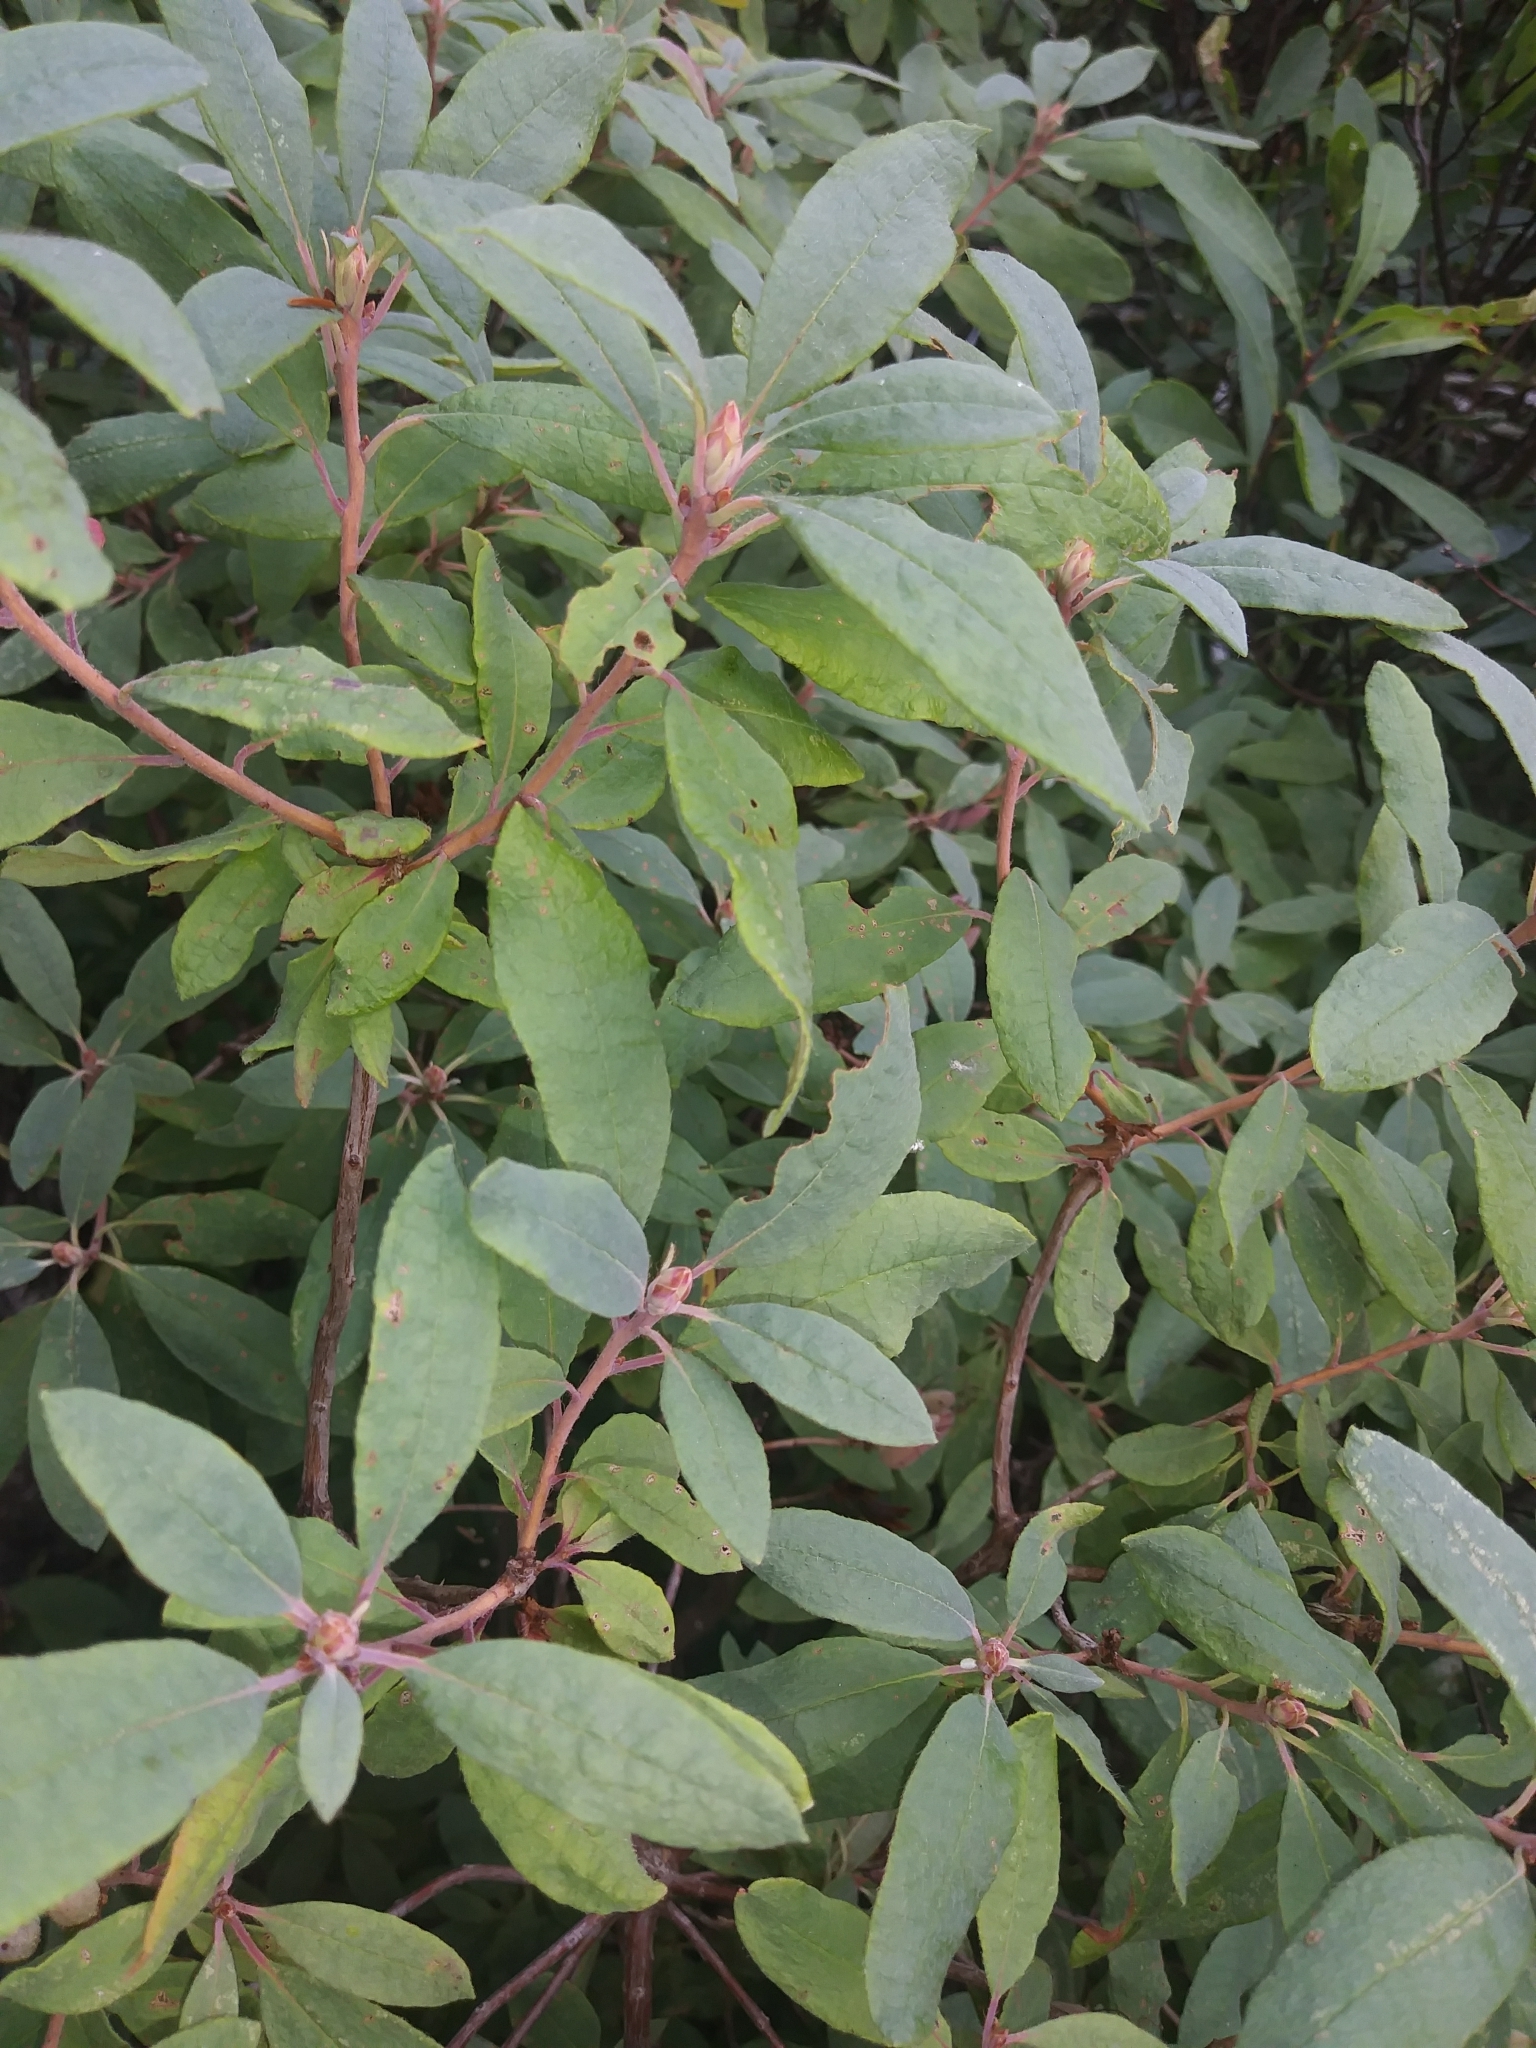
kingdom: Plantae
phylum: Tracheophyta
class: Magnoliopsida
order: Ericales
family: Ericaceae
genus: Rhododendron
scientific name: Rhododendron canadense
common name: Rhodora
